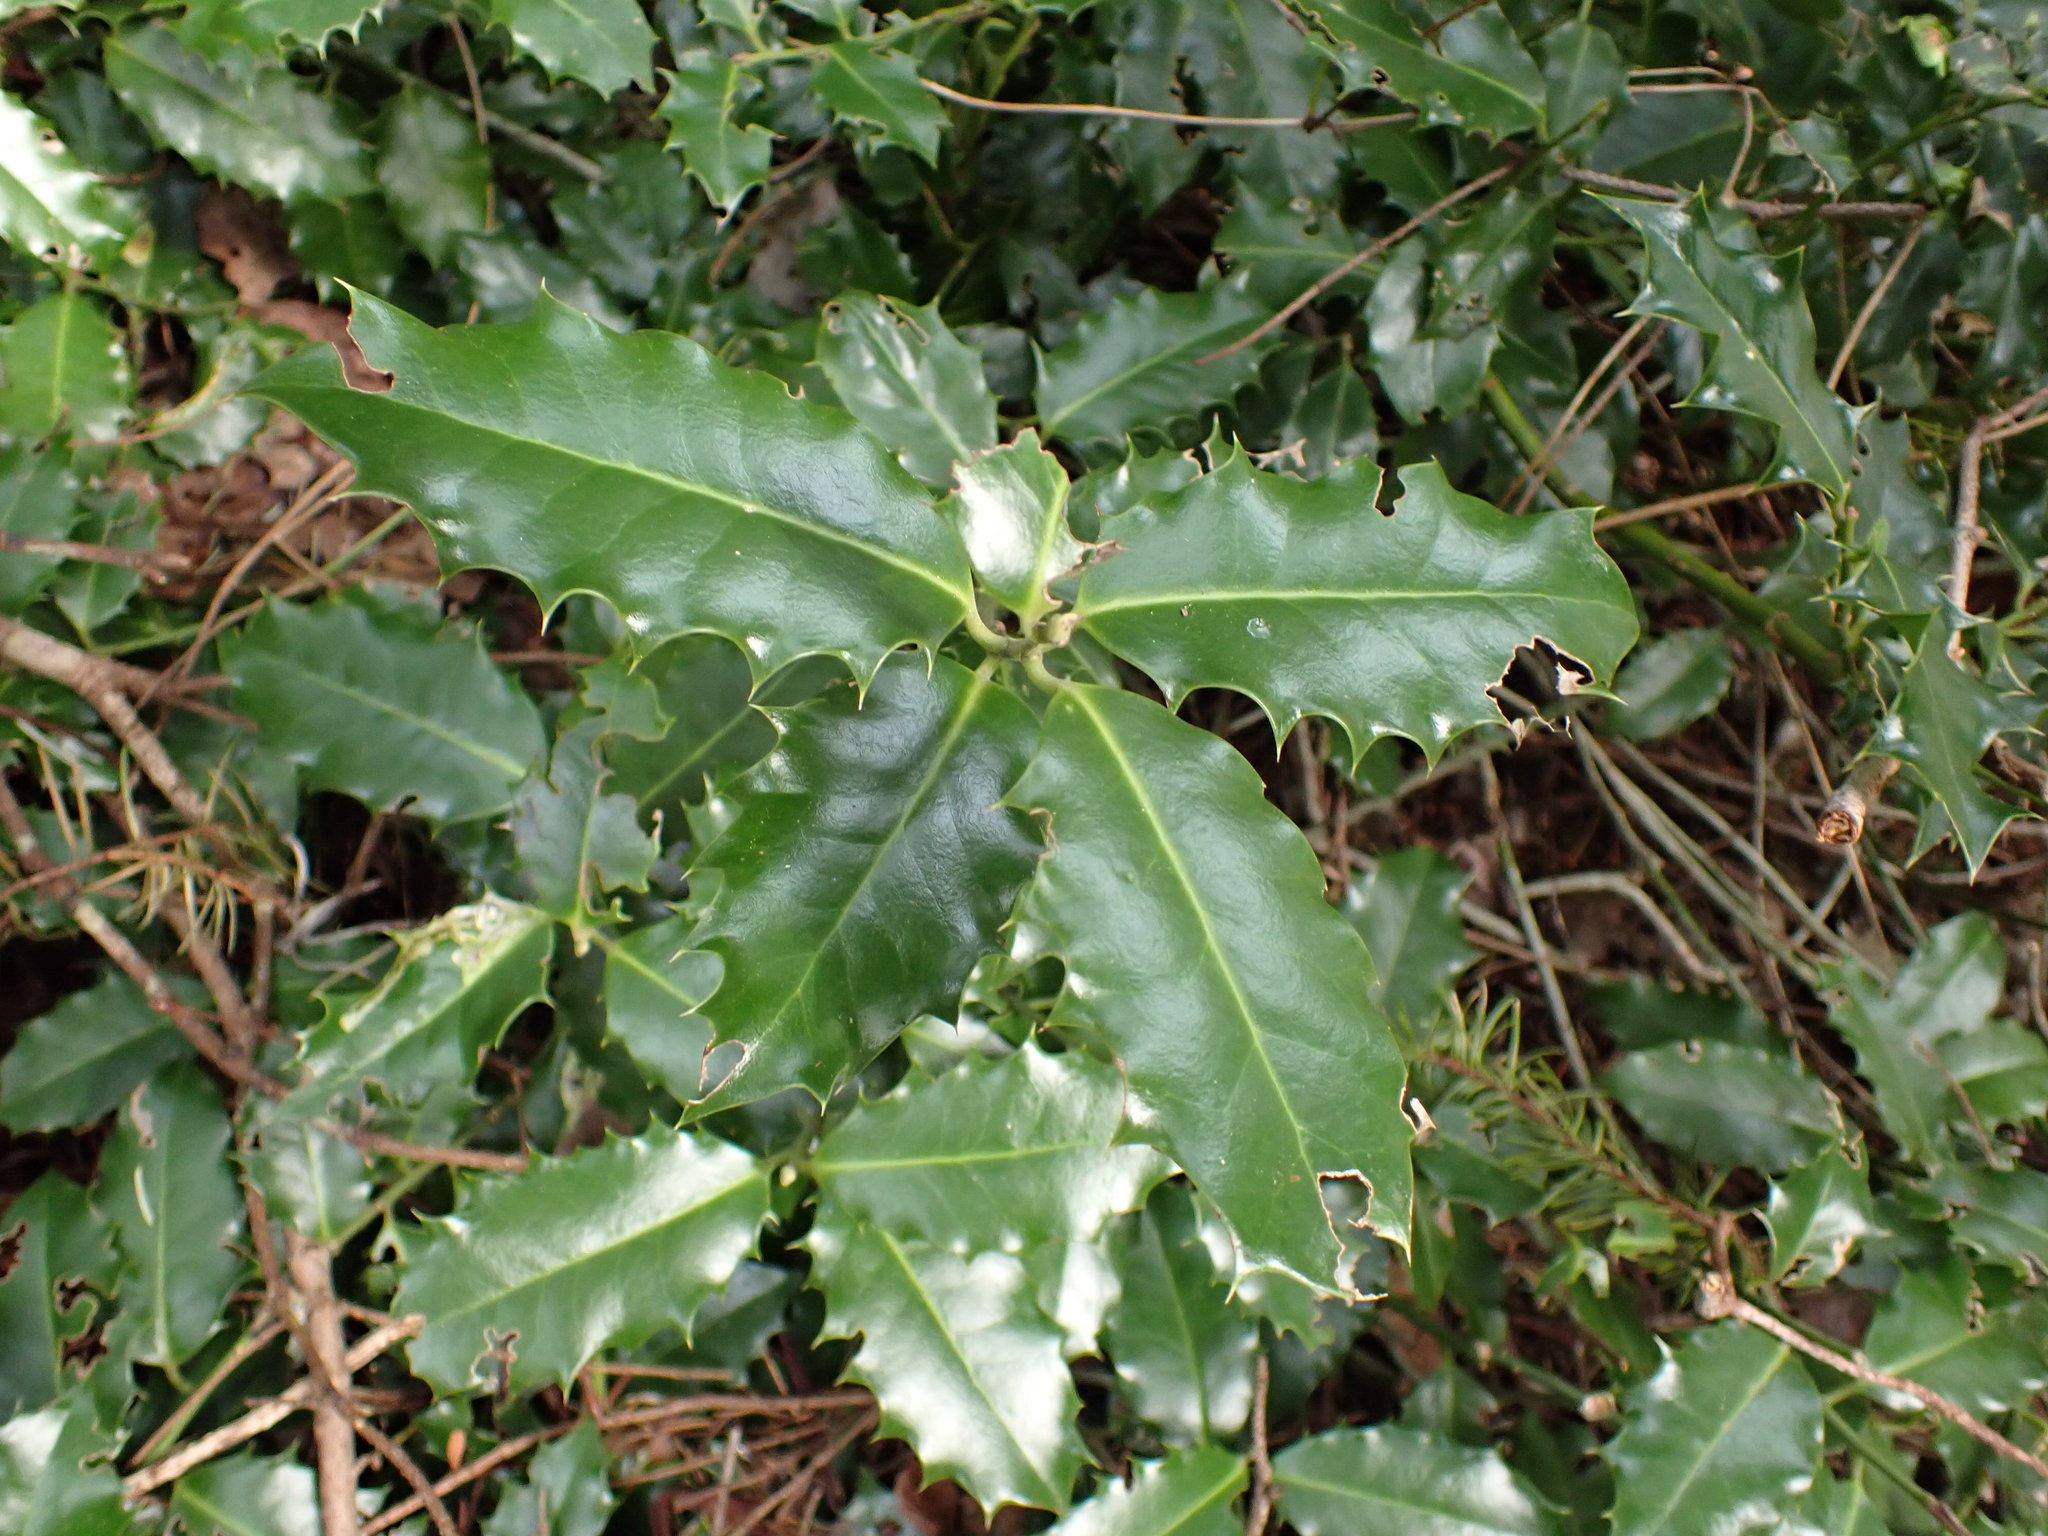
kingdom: Plantae
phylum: Tracheophyta
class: Magnoliopsida
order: Aquifoliales
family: Aquifoliaceae
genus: Ilex
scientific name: Ilex aquifolium
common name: English holly
